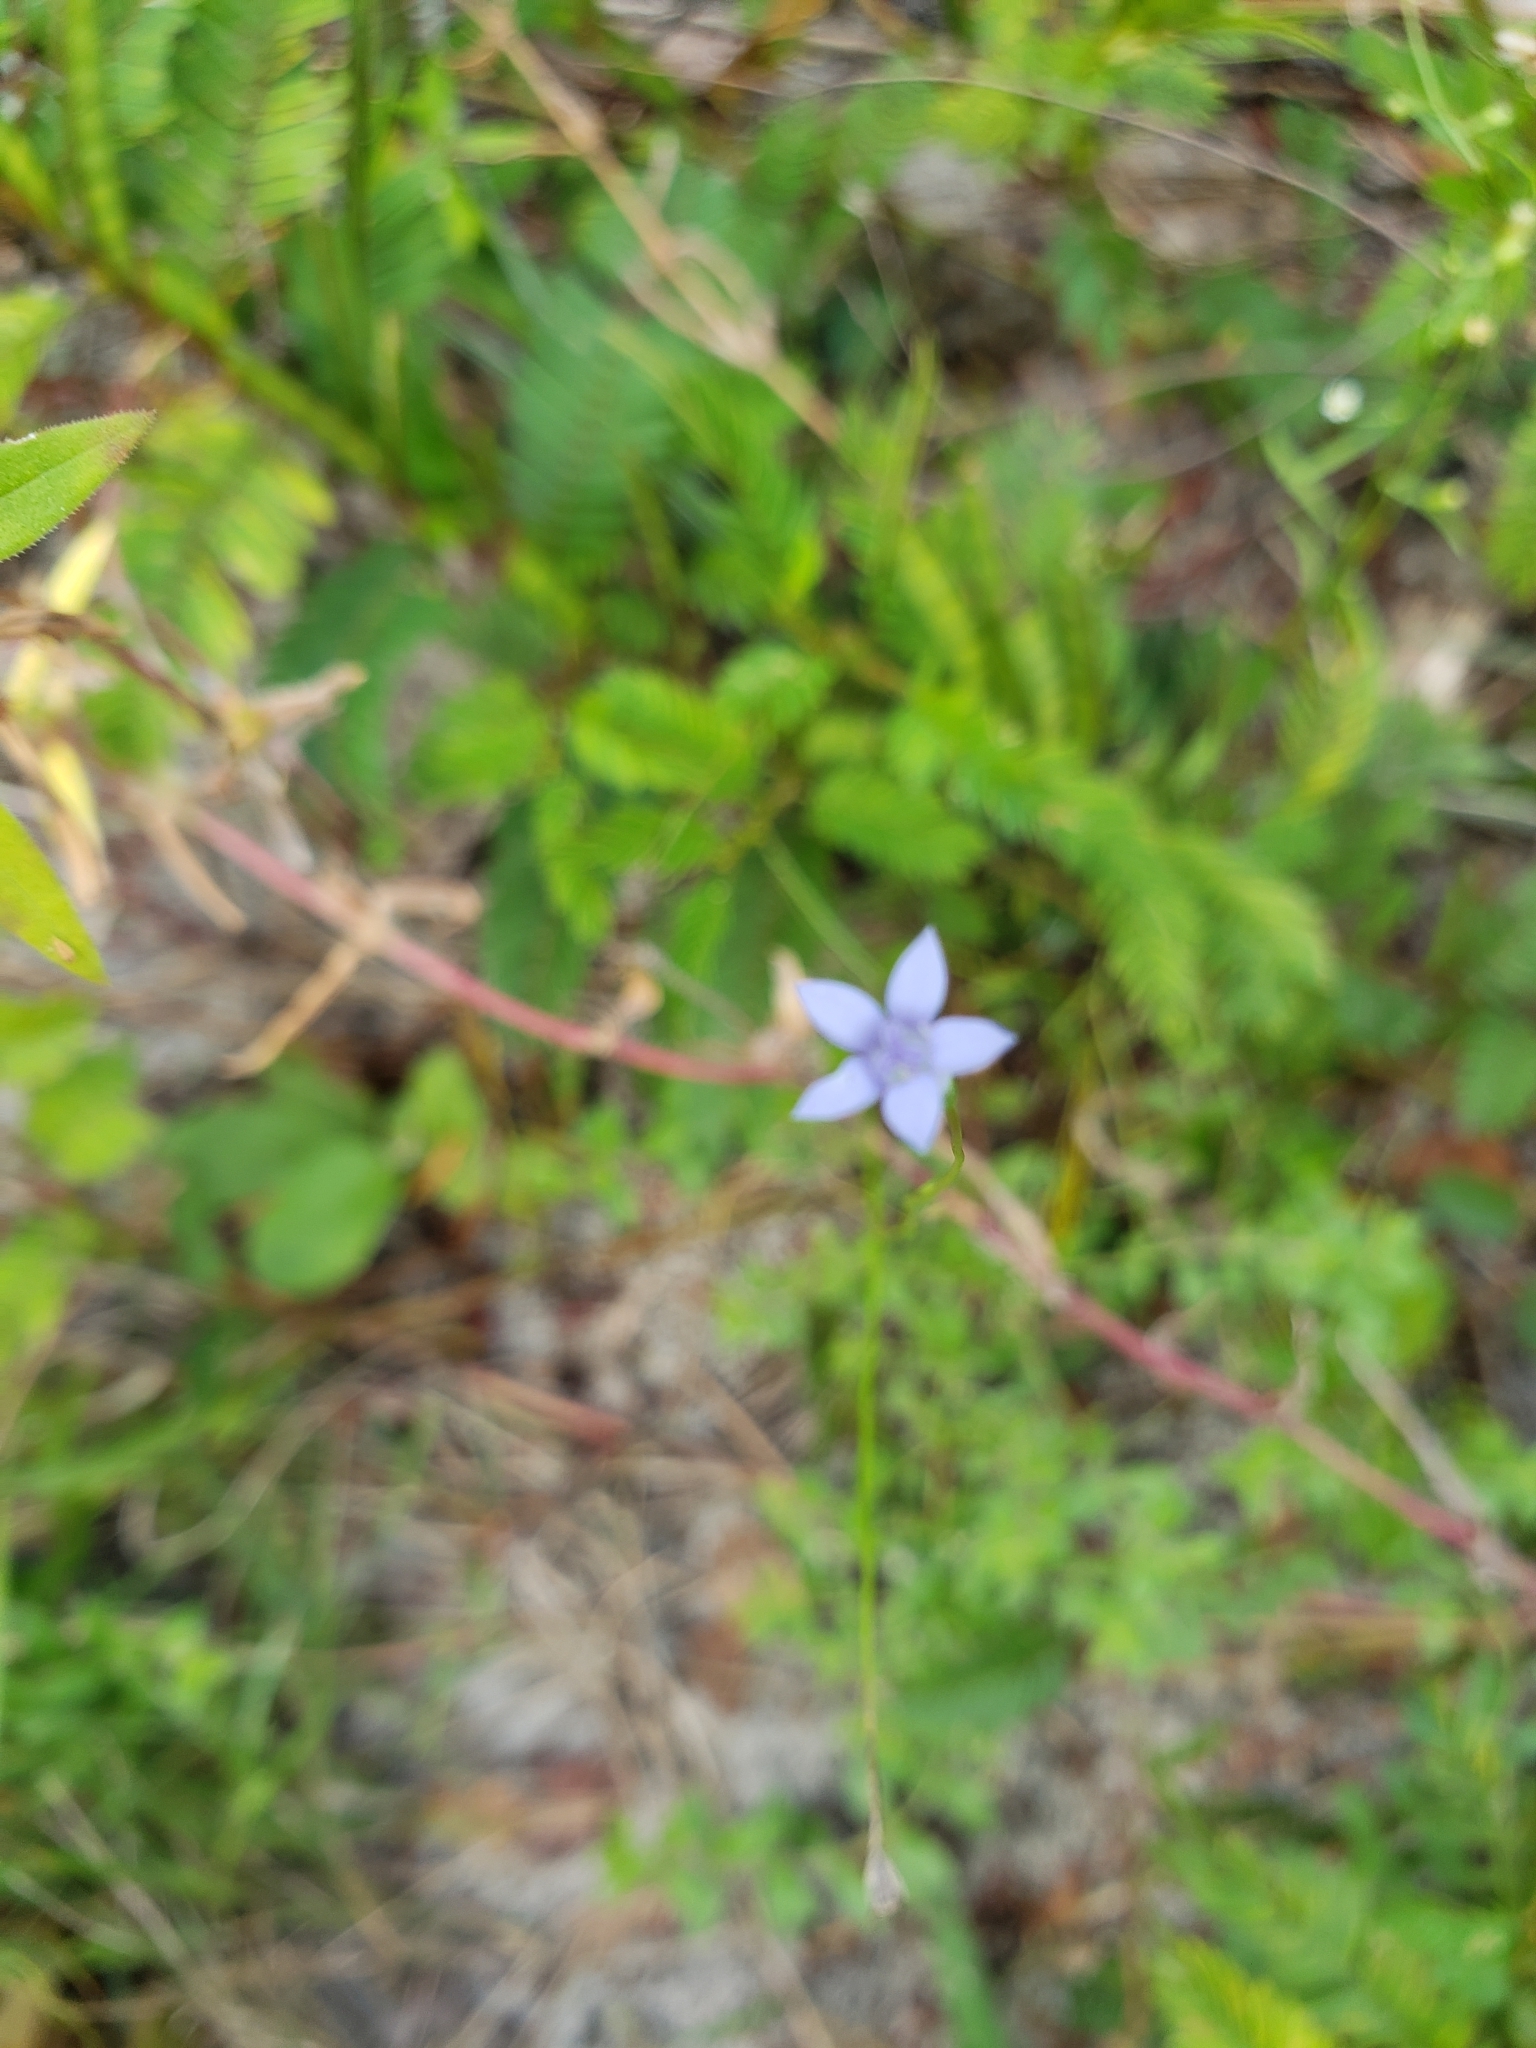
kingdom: Plantae
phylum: Tracheophyta
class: Magnoliopsida
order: Asterales
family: Campanulaceae
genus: Wahlenbergia
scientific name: Wahlenbergia marginata
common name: Southern rockbell
